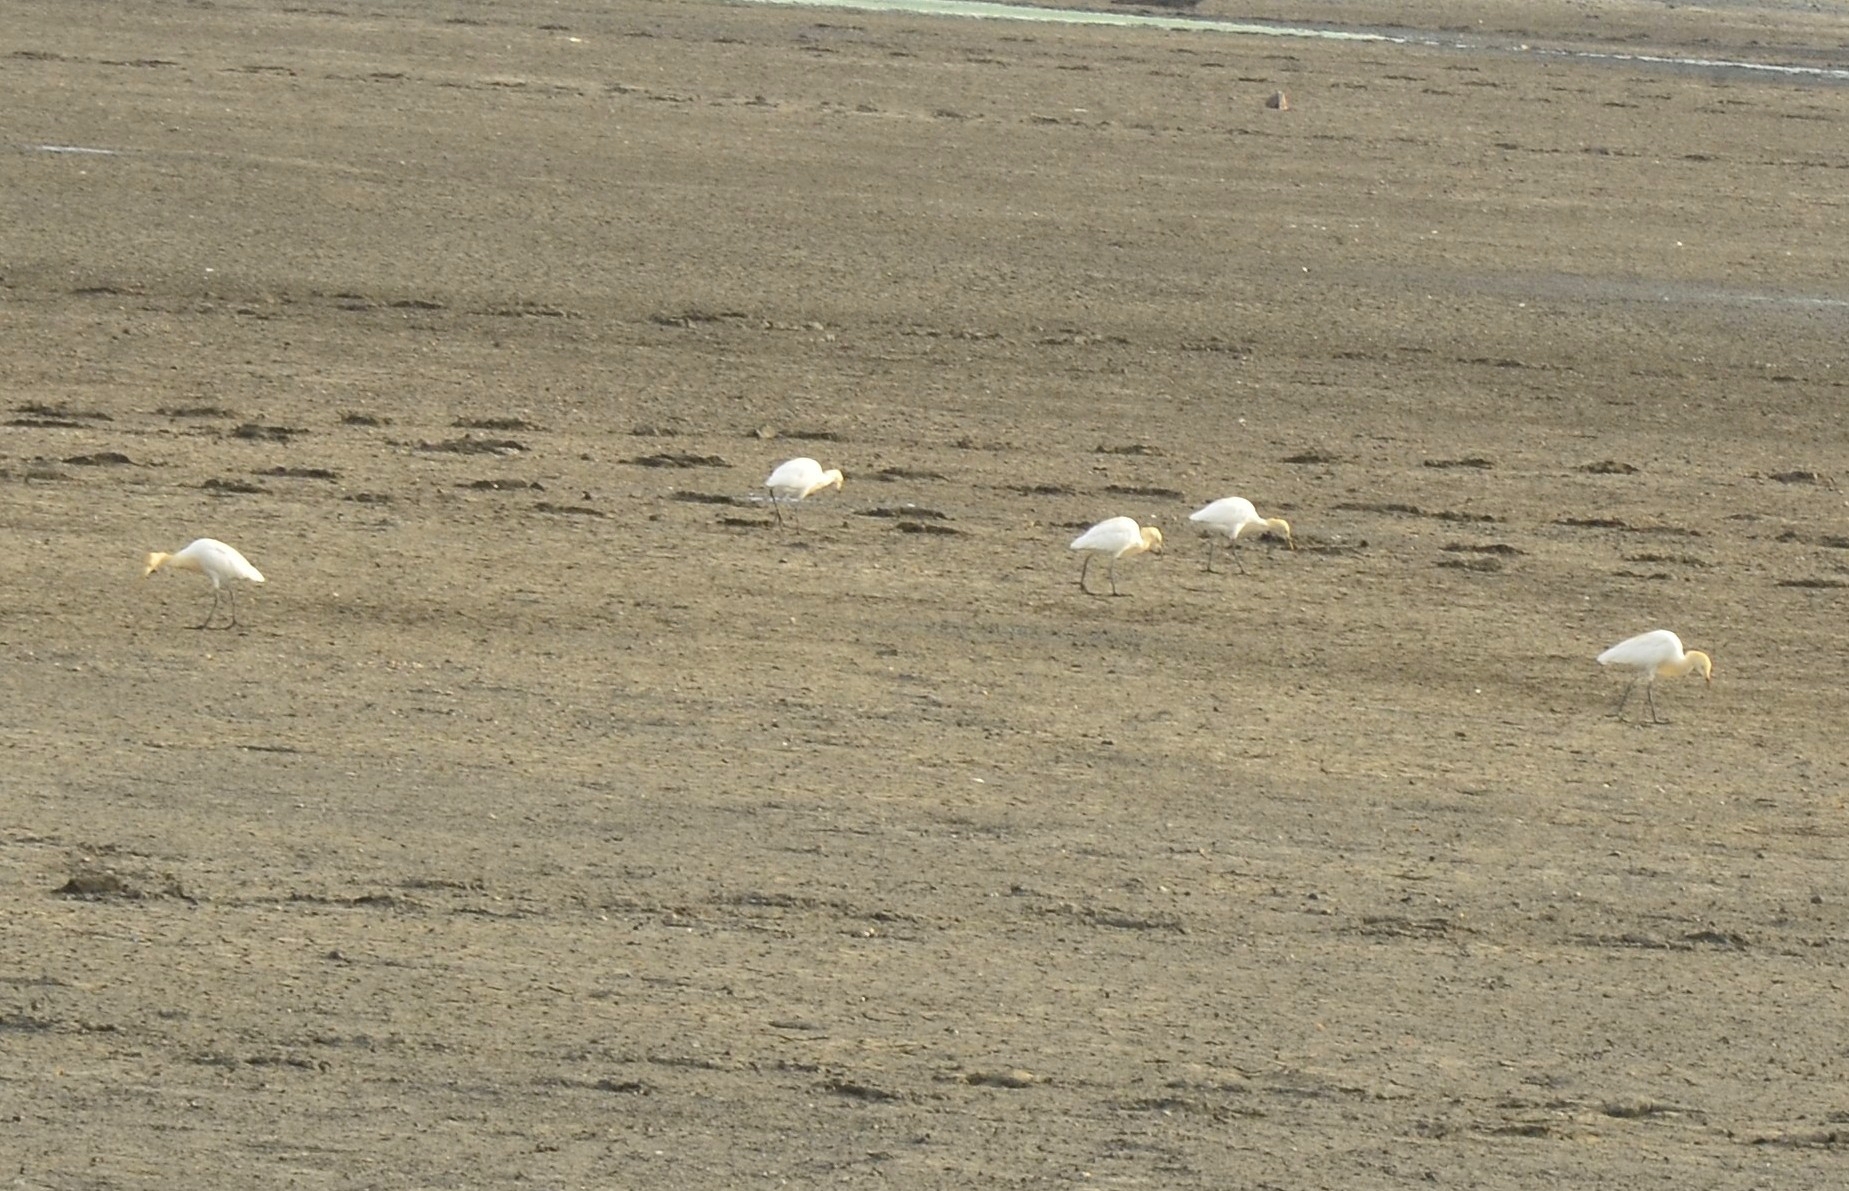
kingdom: Animalia
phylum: Chordata
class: Aves
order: Pelecaniformes
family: Ardeidae
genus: Bubulcus
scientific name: Bubulcus coromandus
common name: Eastern cattle egret
